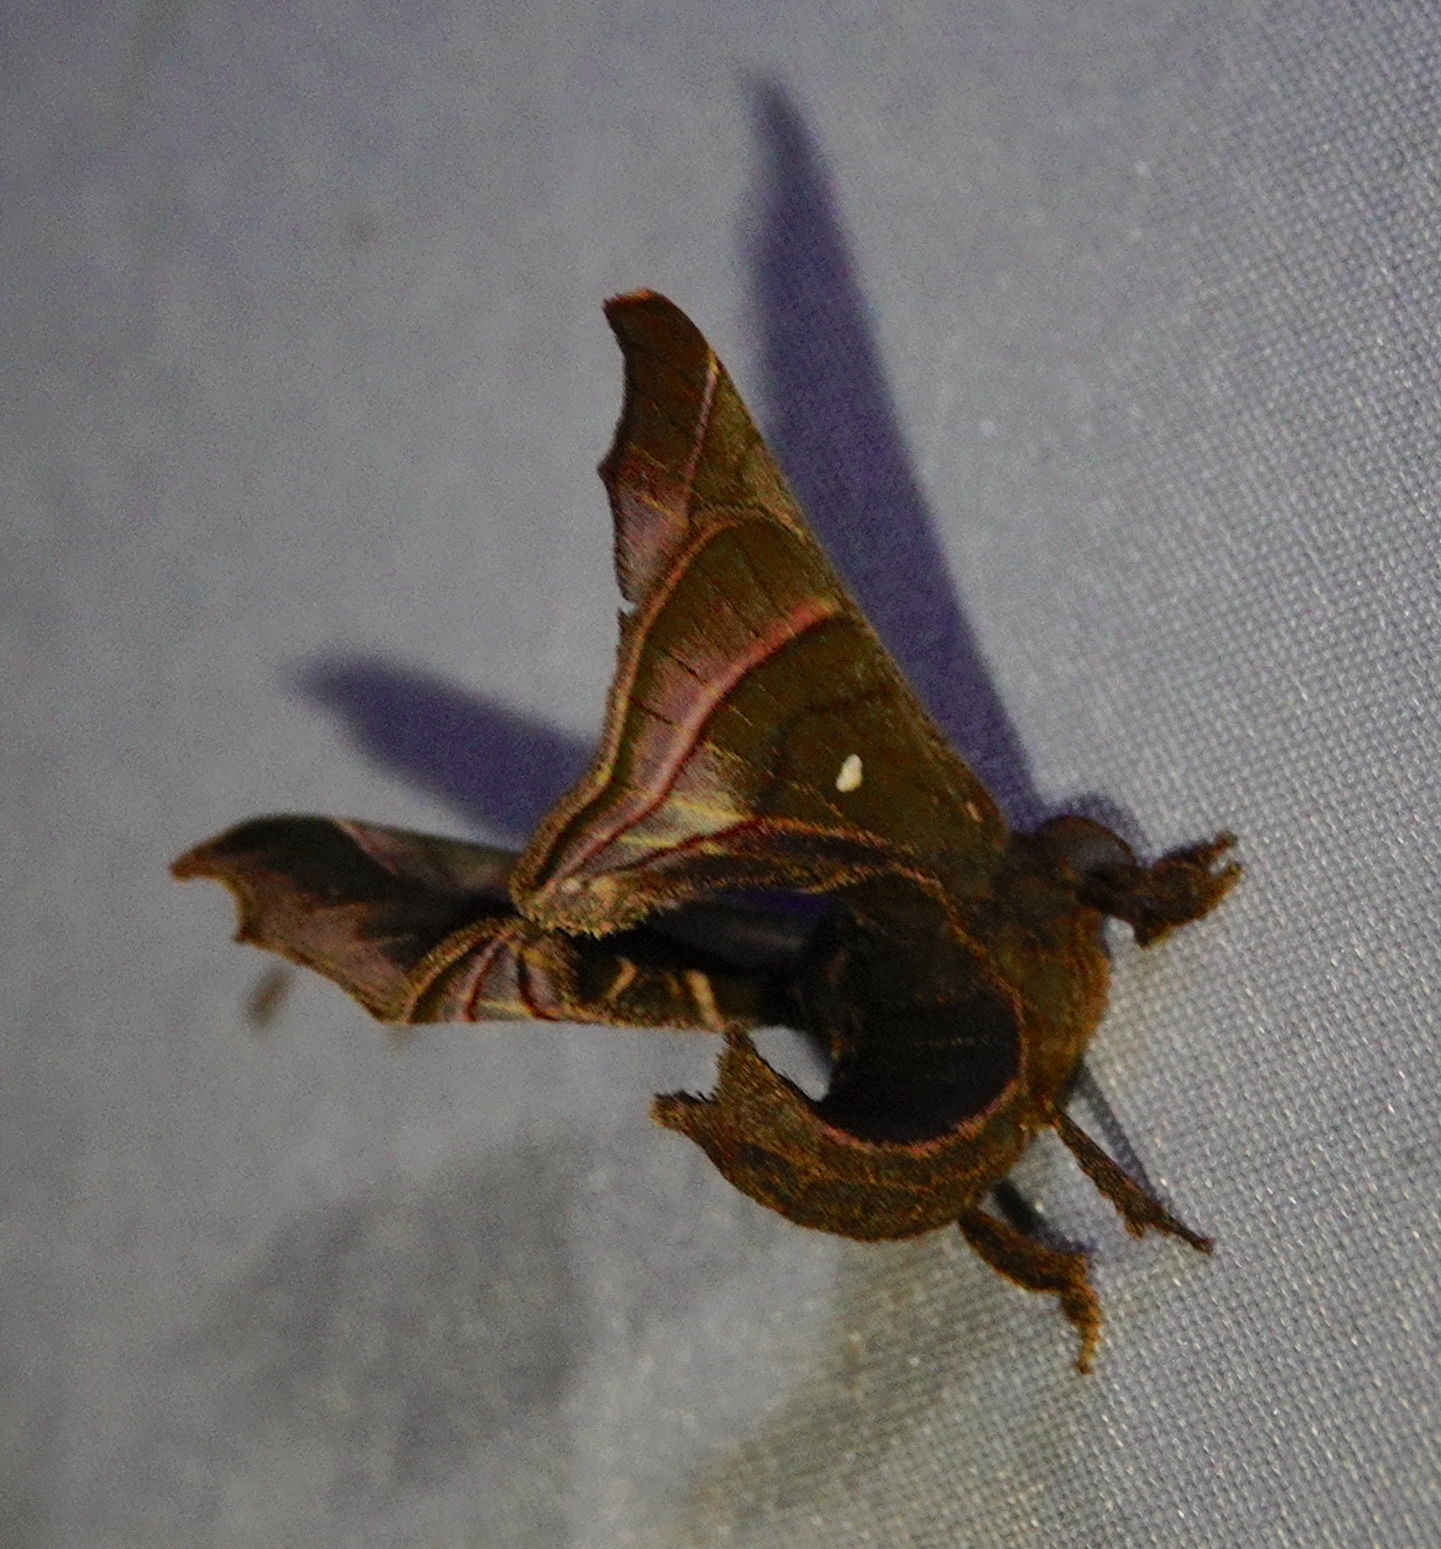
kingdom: Animalia
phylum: Arthropoda
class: Insecta
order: Lepidoptera
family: Bombycidae
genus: Quentalia
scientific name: Quentalia paminella
